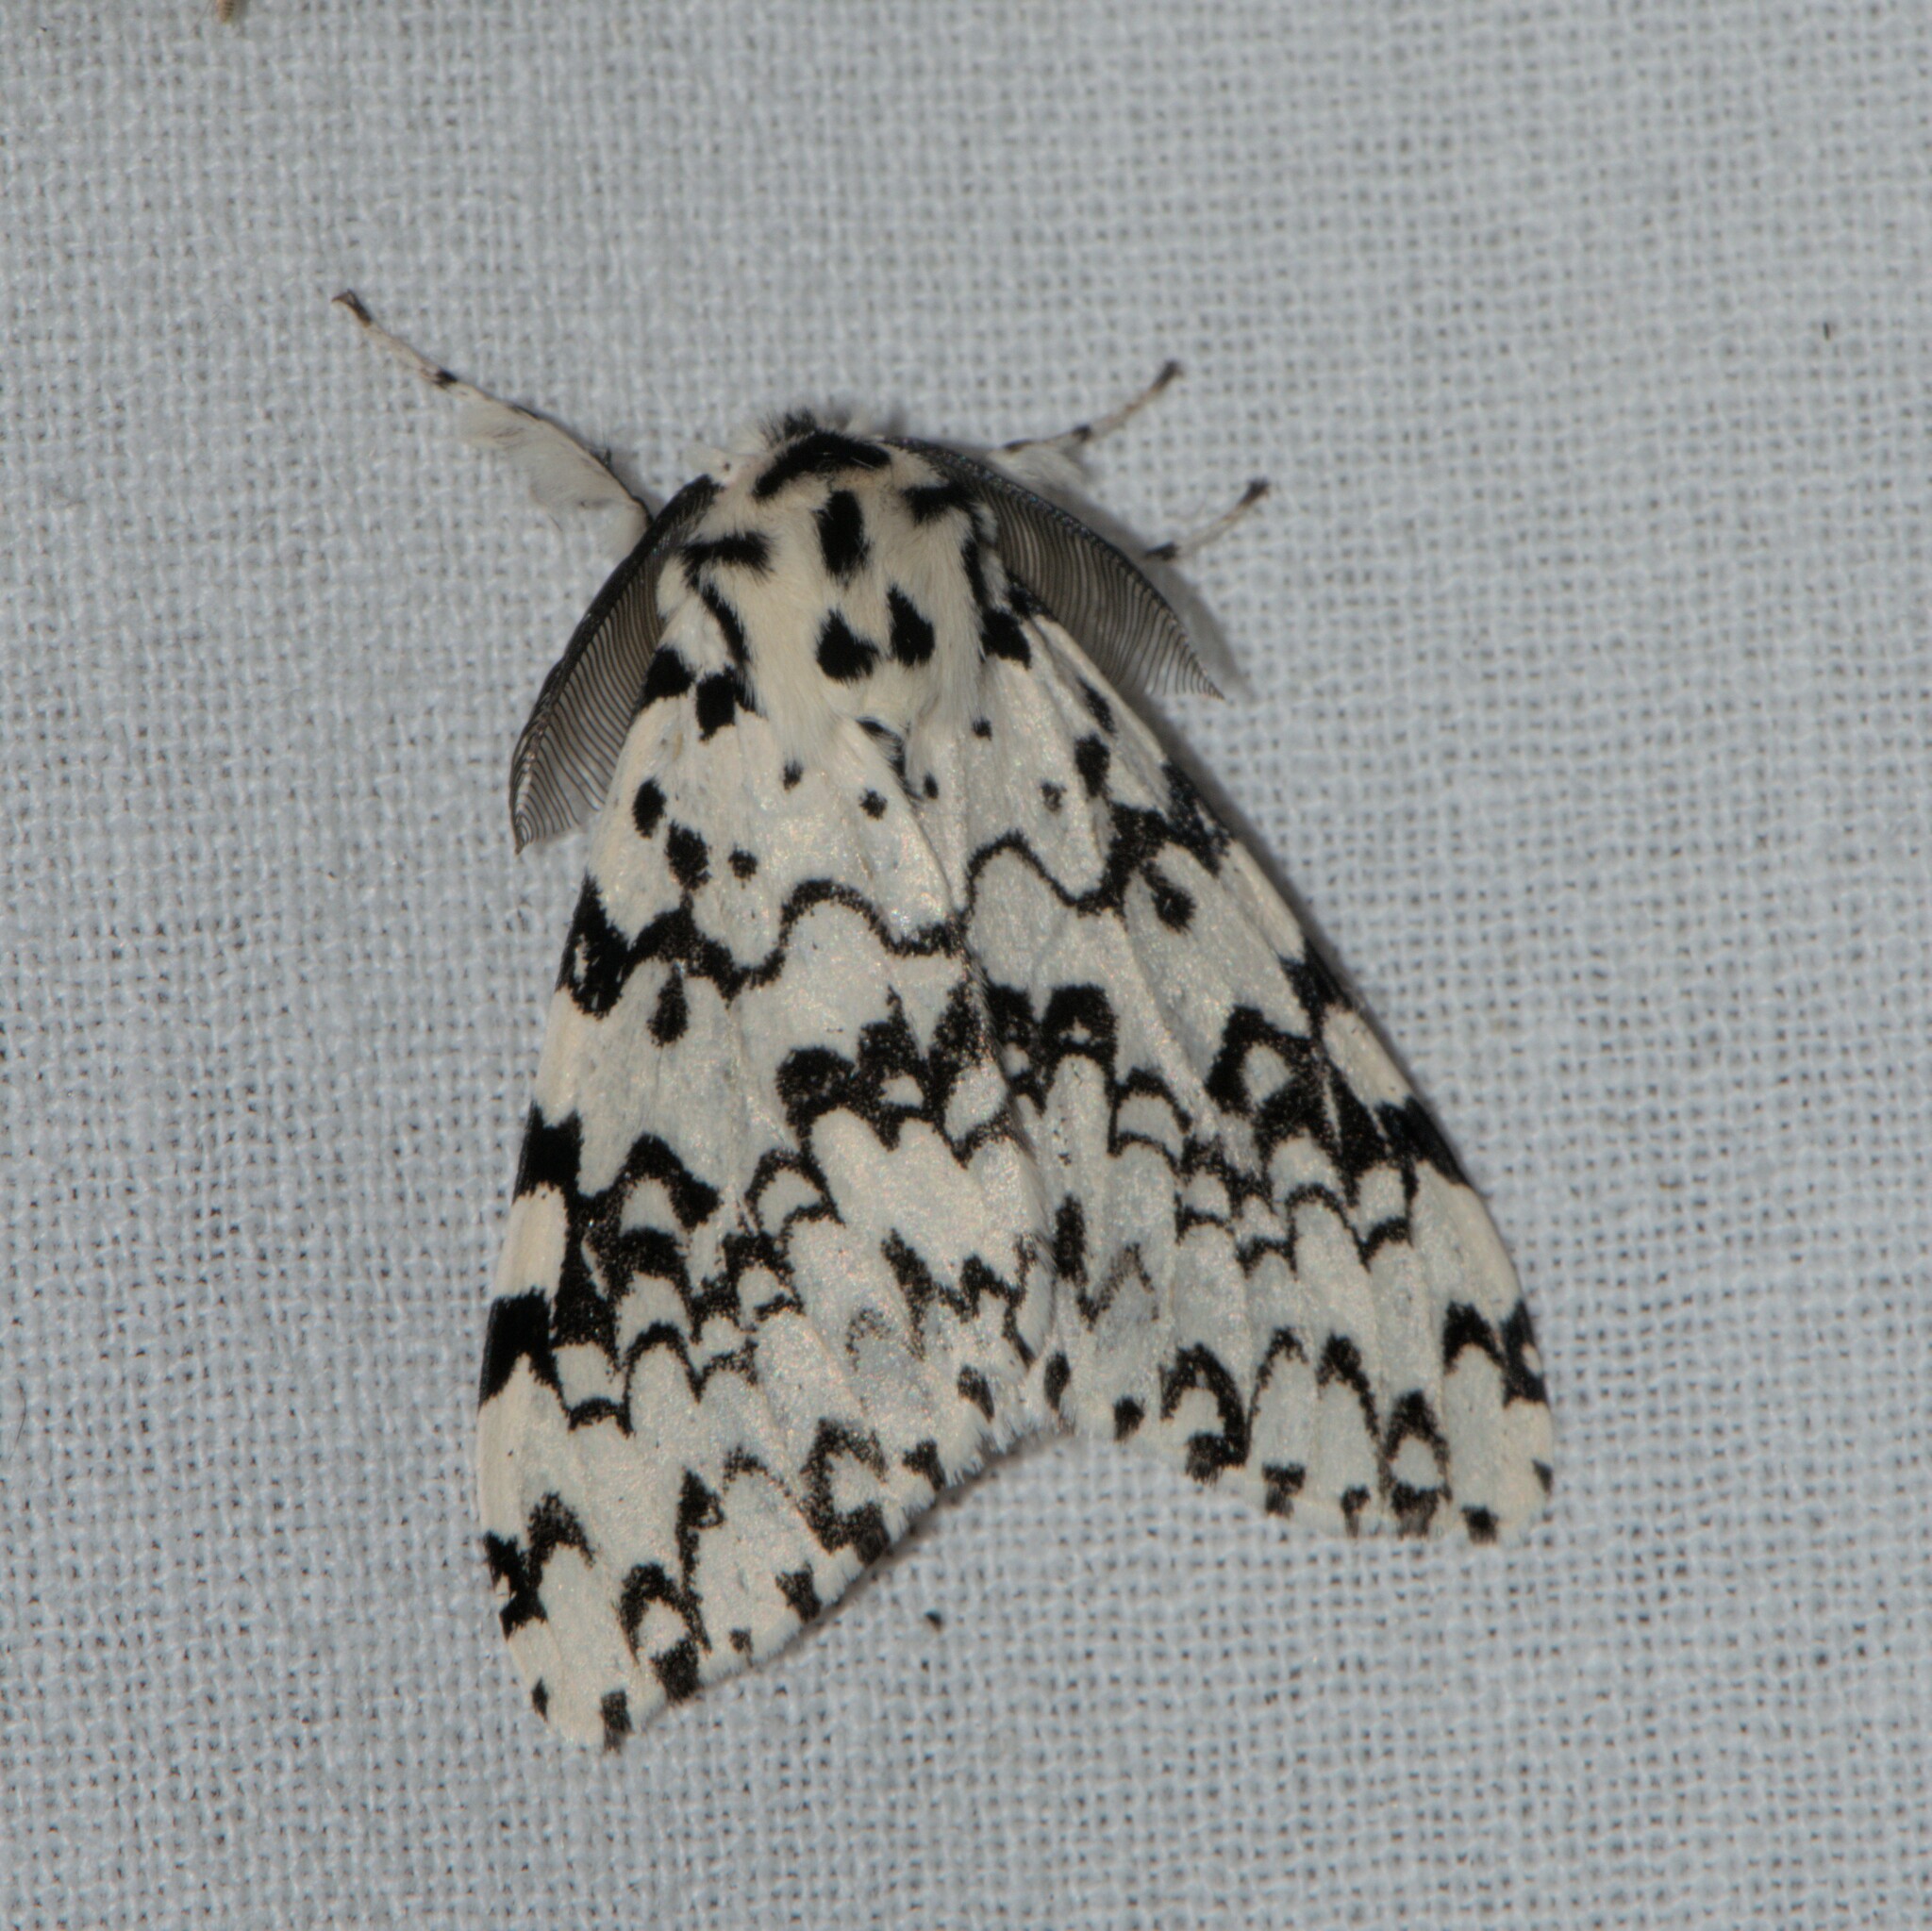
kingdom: Animalia
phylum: Arthropoda
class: Insecta
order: Lepidoptera
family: Erebidae
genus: Lymantria
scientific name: Lymantria concolor
